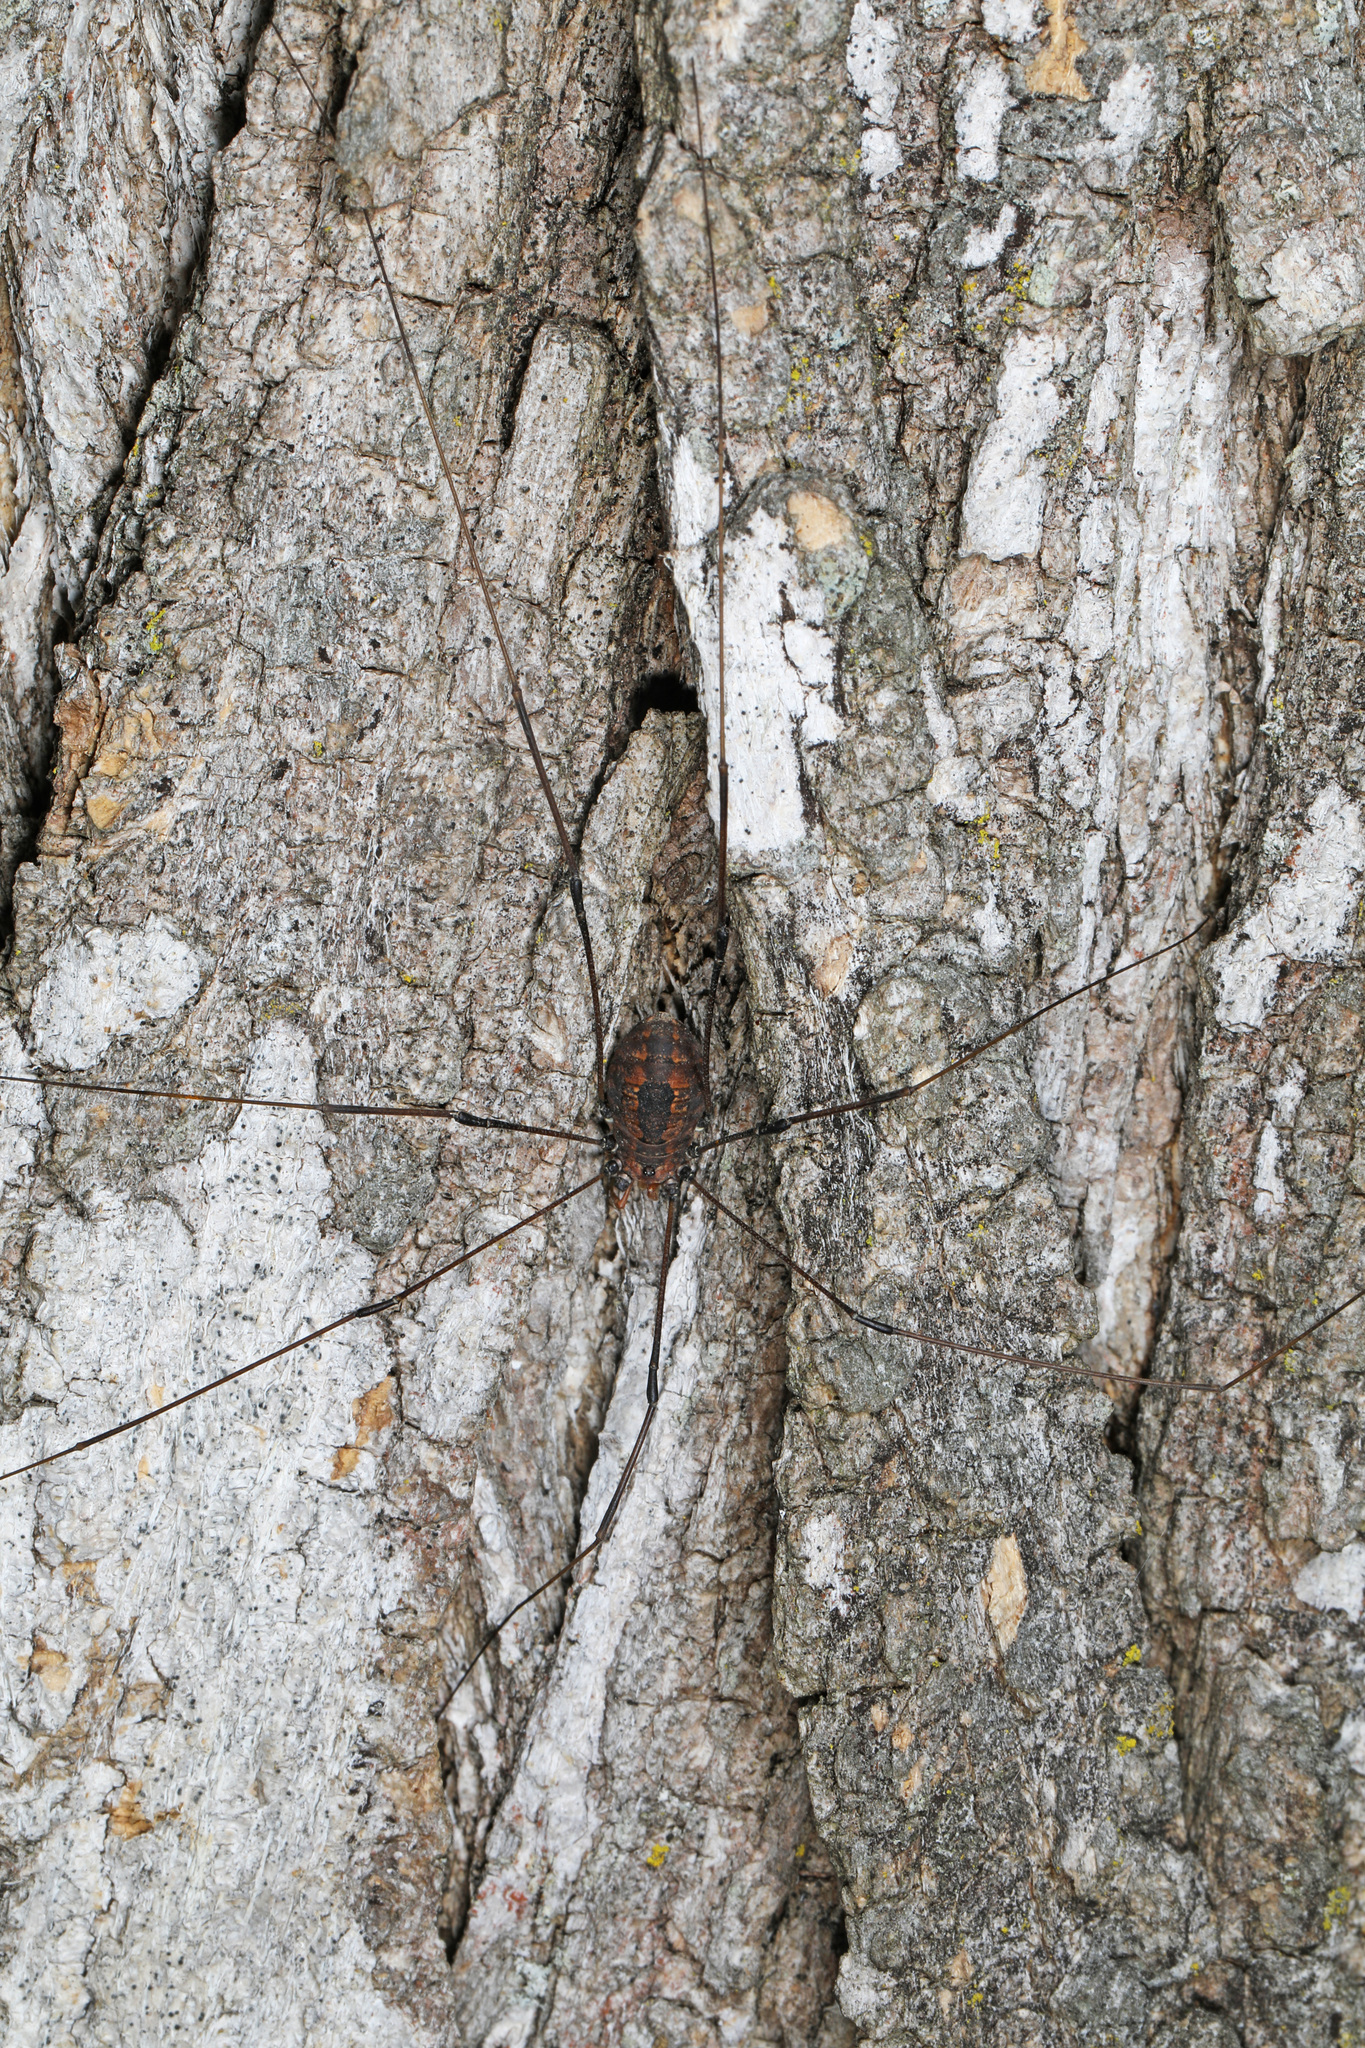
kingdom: Animalia
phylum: Arthropoda
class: Arachnida
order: Opiliones
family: Sclerosomatidae
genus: Leiobunum
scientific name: Leiobunum vittatum
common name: Eastern harvestman
